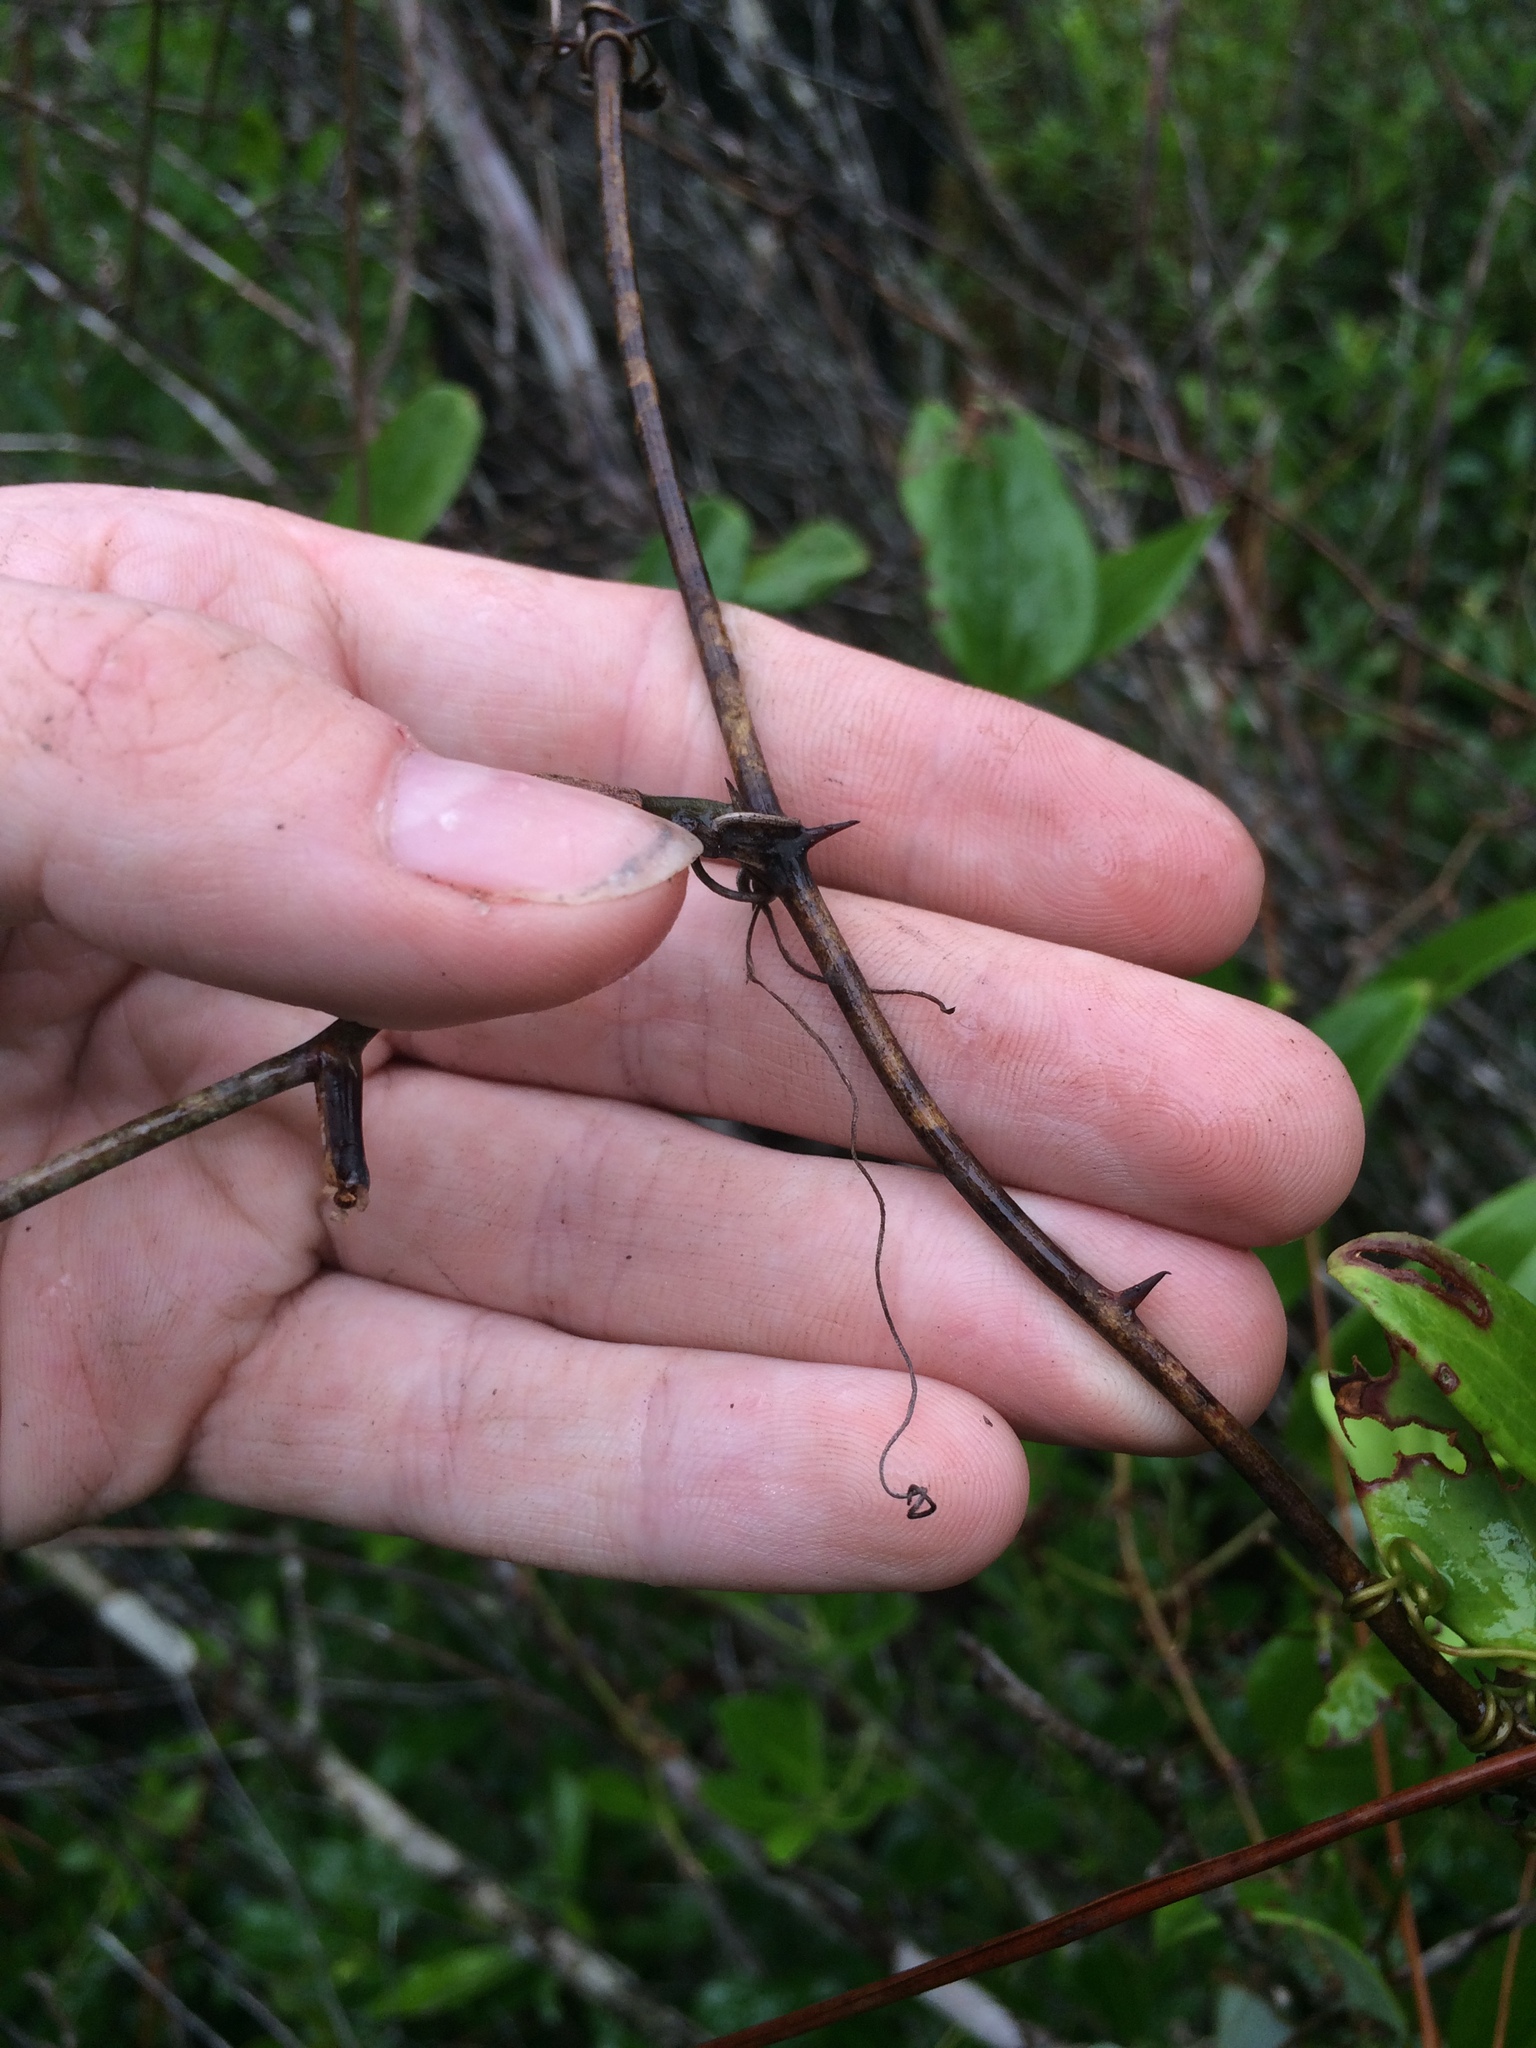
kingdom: Plantae
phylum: Tracheophyta
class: Liliopsida
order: Liliales
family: Smilacaceae
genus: Smilax
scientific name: Smilax glauca
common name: Cat greenbrier
